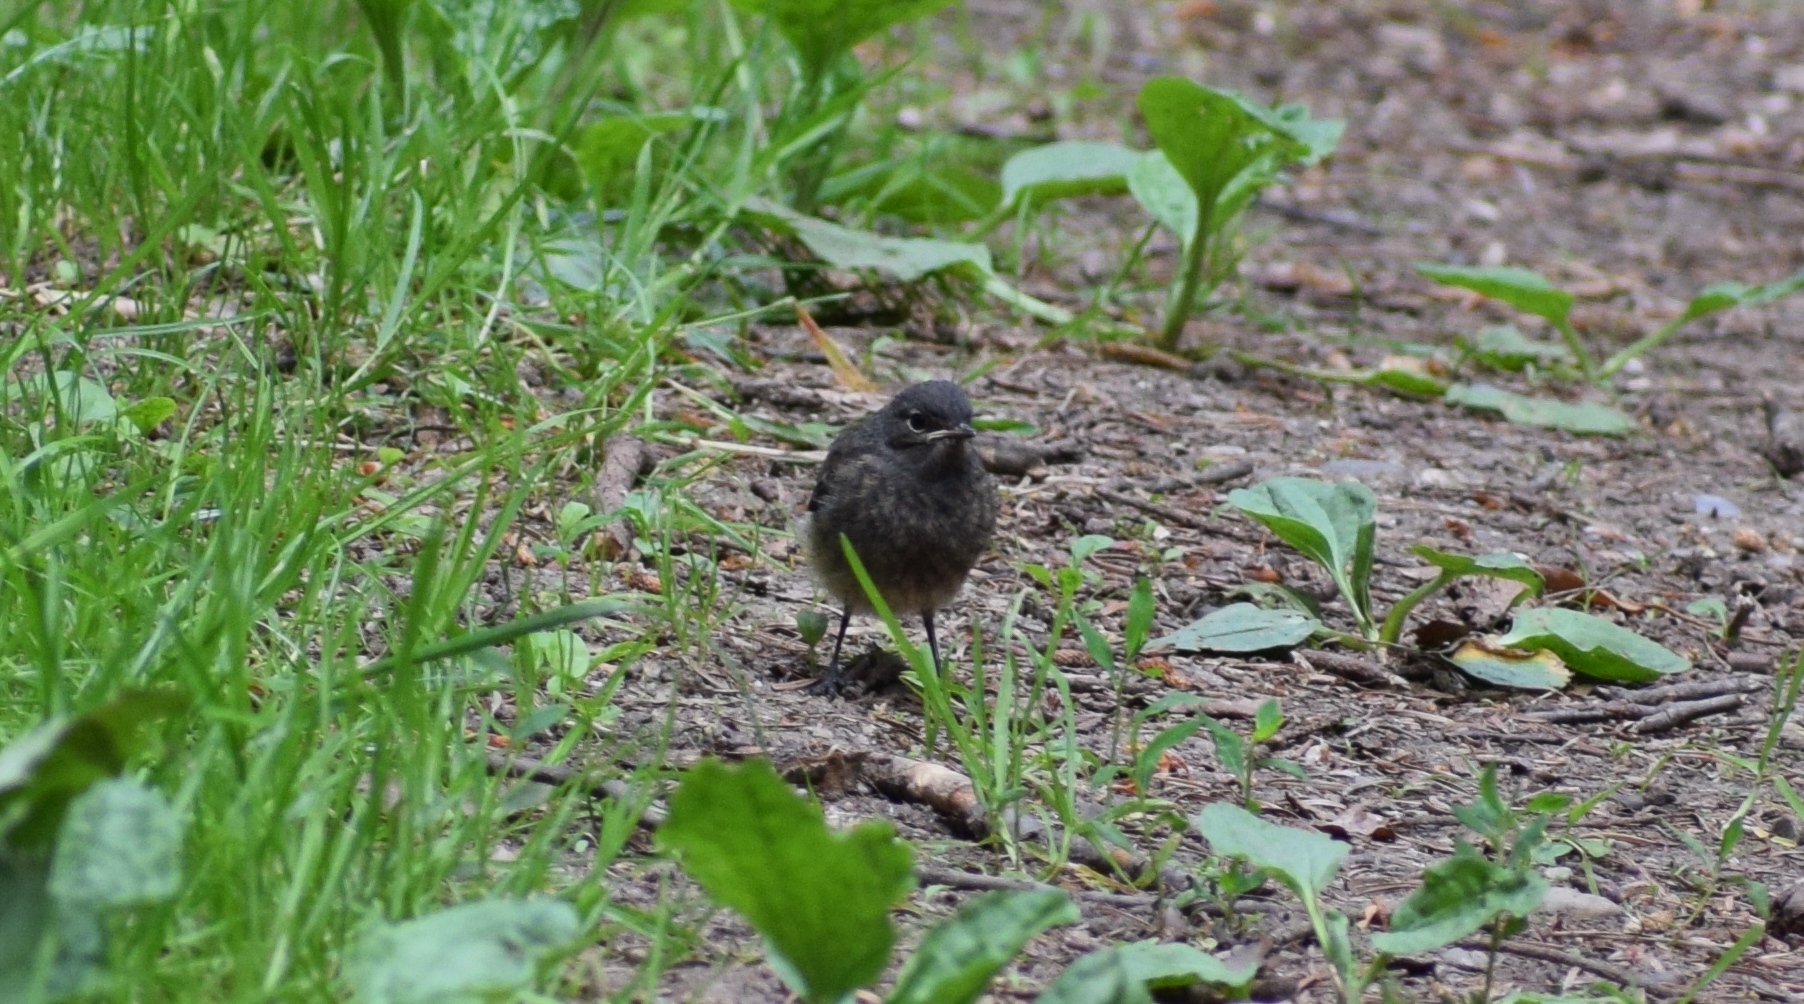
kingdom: Animalia
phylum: Chordata
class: Aves
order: Passeriformes
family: Muscicapidae
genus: Phoenicurus
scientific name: Phoenicurus ochruros
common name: Black redstart
